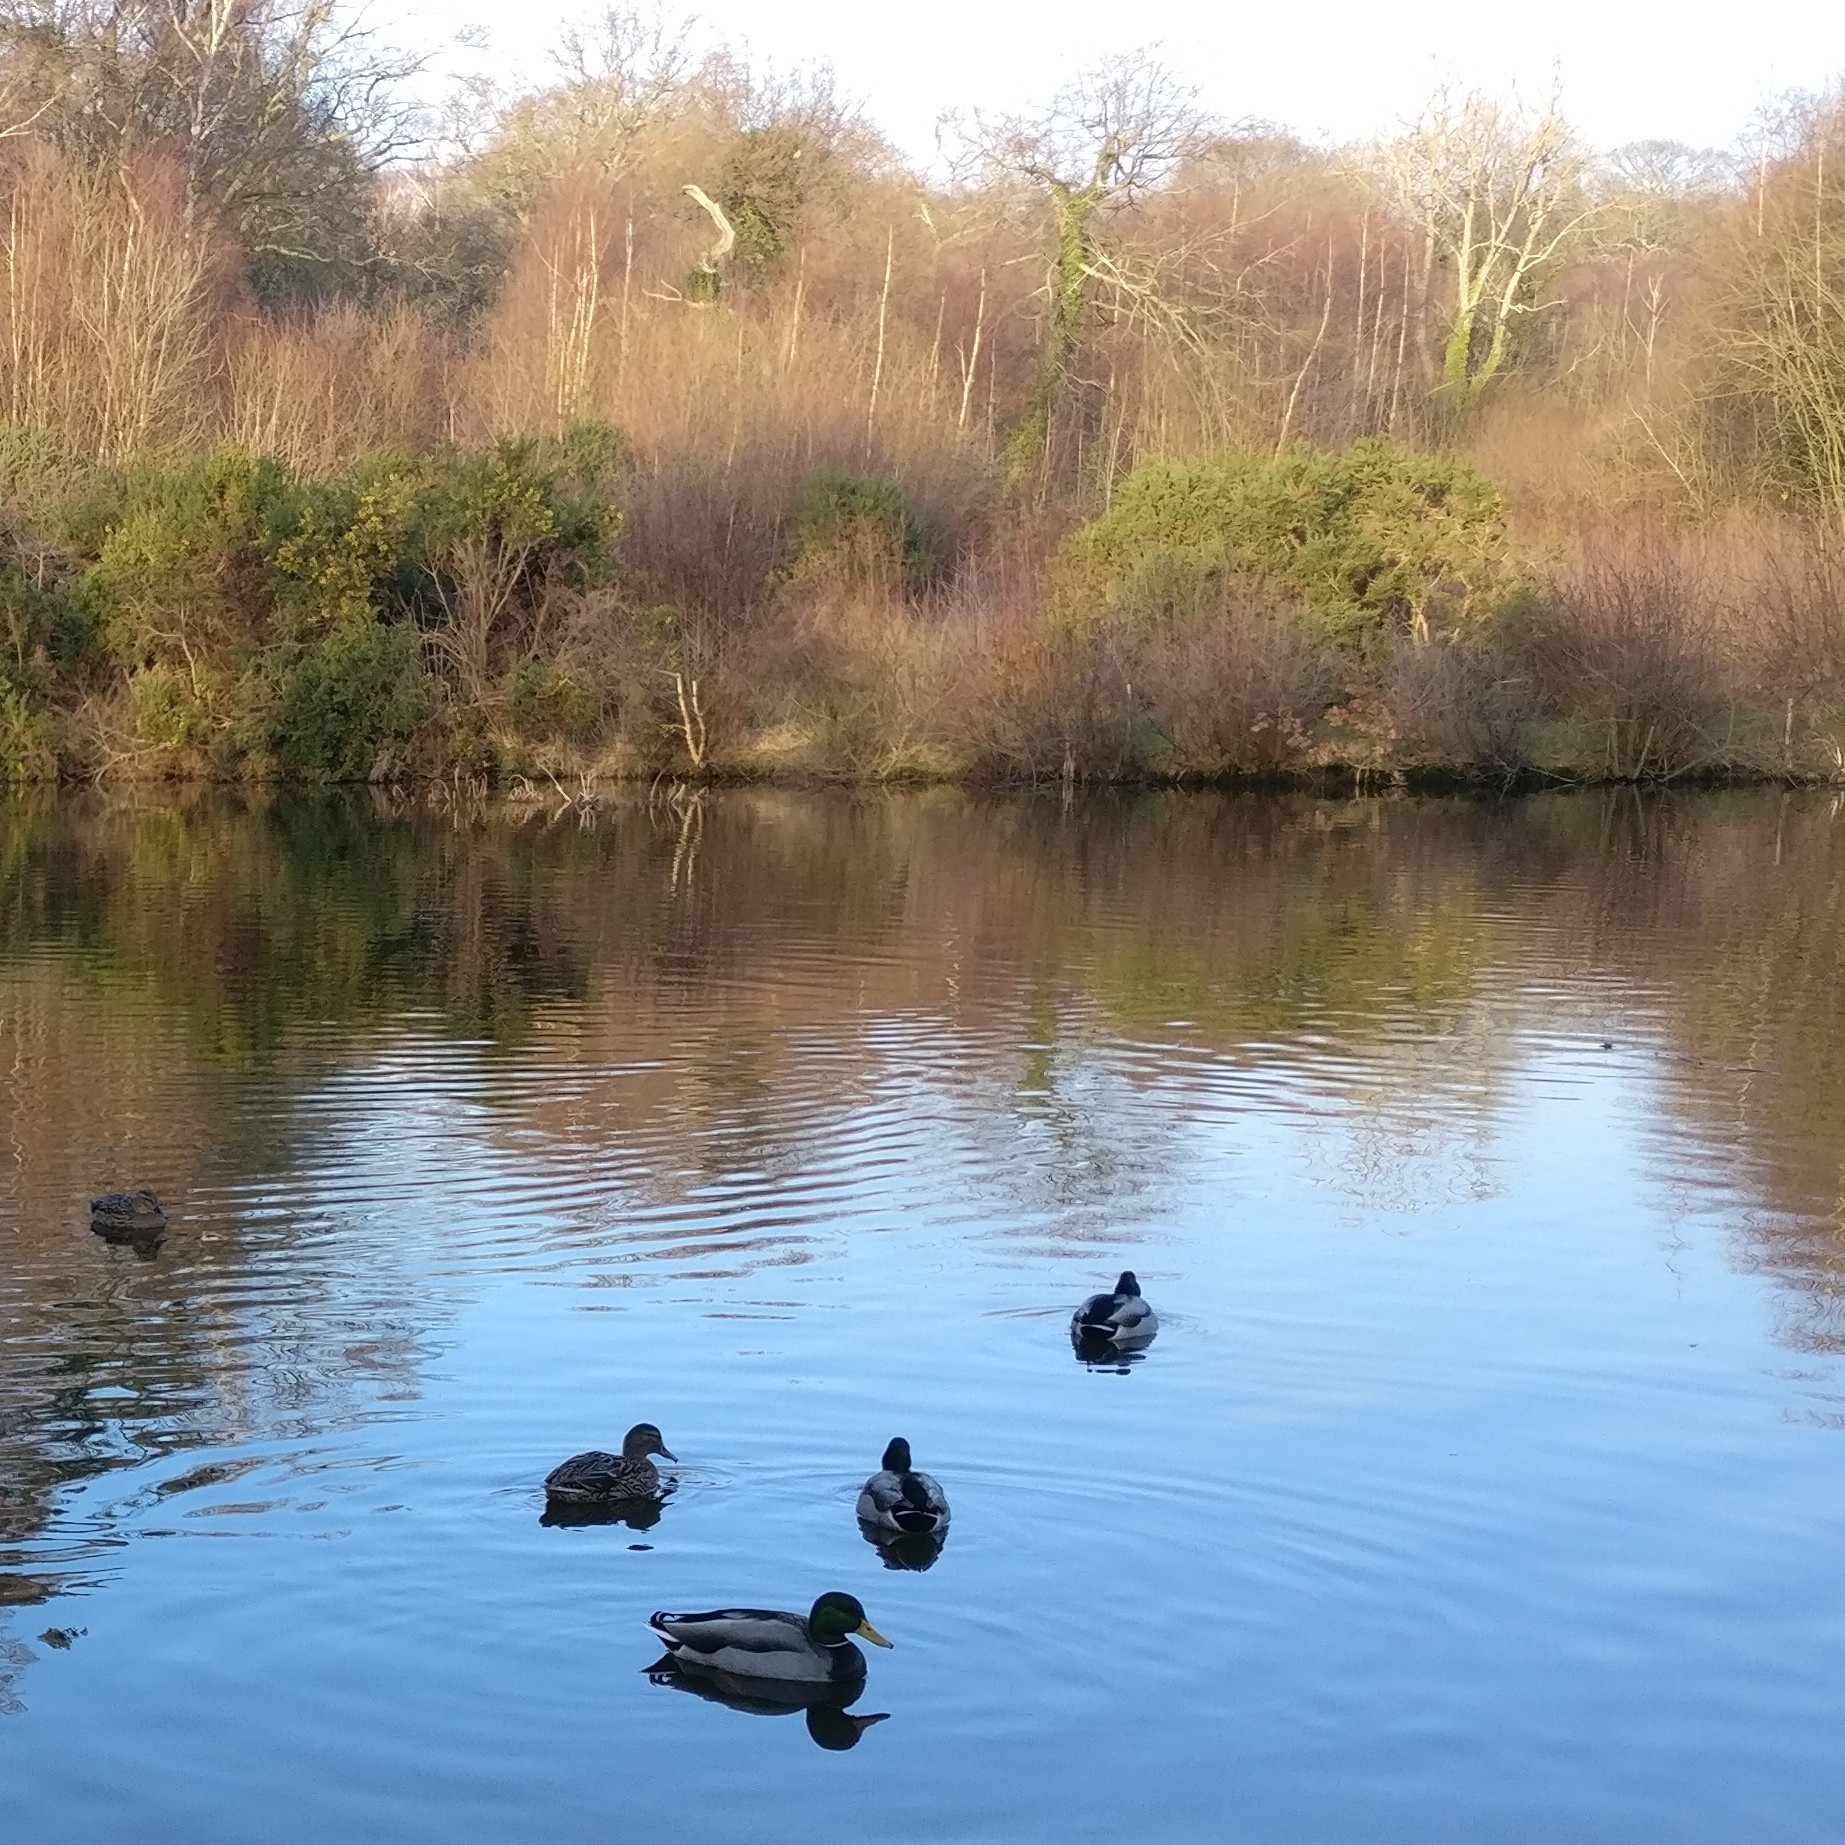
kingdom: Animalia
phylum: Chordata
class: Aves
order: Anseriformes
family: Anatidae
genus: Anas
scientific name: Anas platyrhynchos
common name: Mallard
